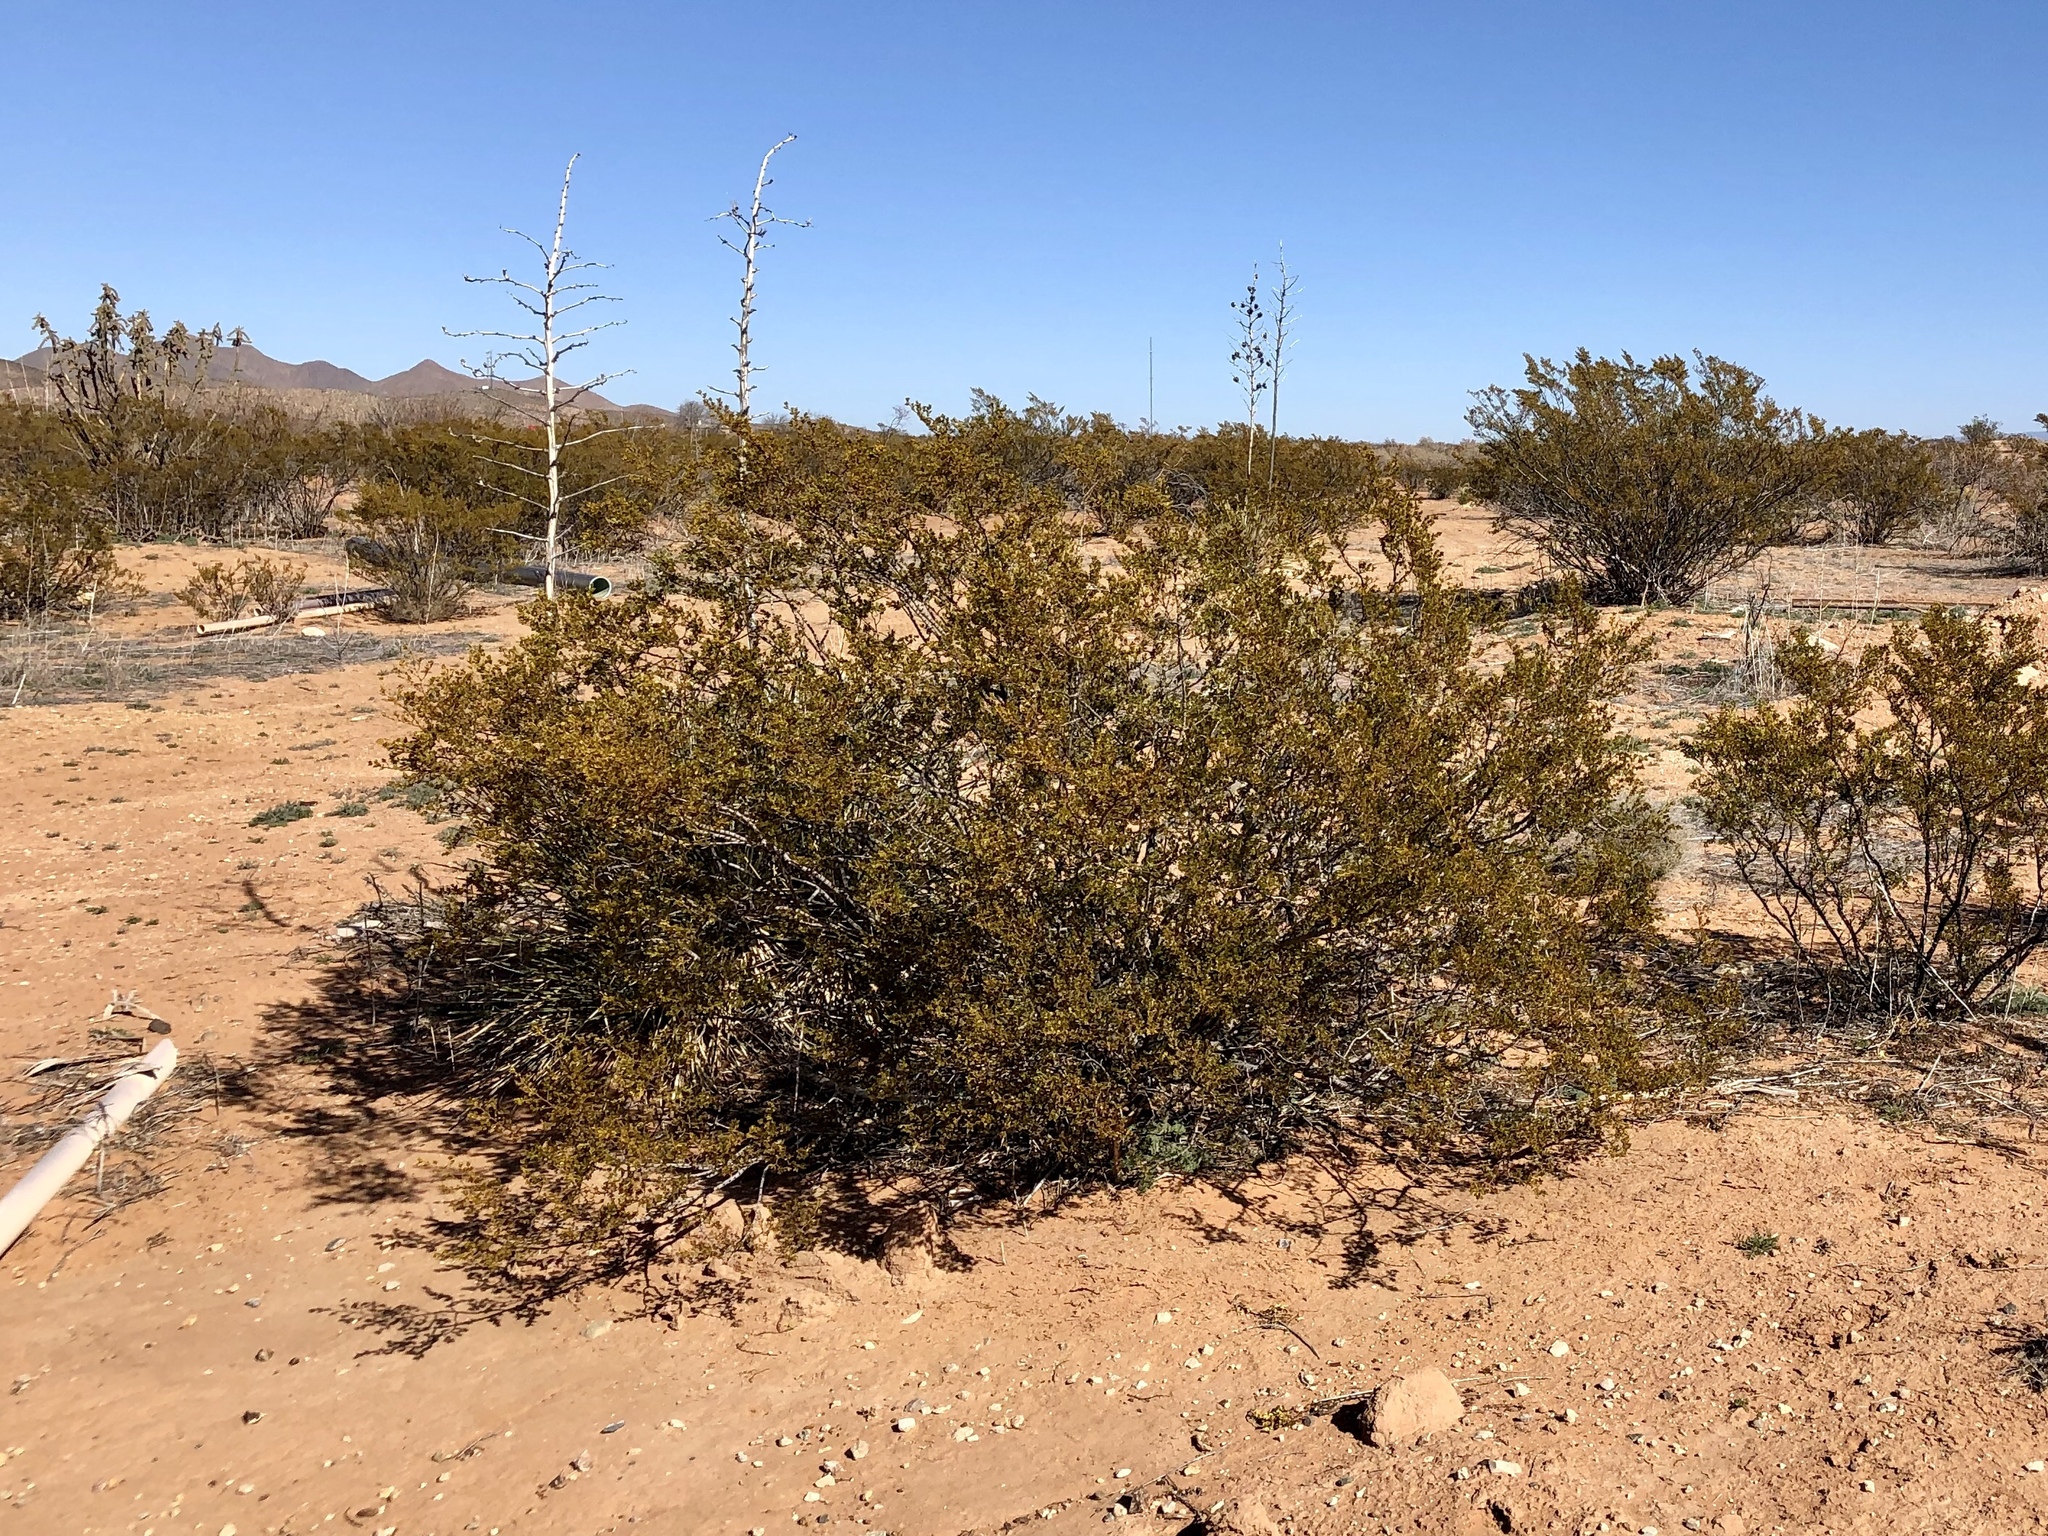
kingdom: Plantae
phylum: Tracheophyta
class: Magnoliopsida
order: Zygophyllales
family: Zygophyllaceae
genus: Larrea
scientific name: Larrea tridentata
